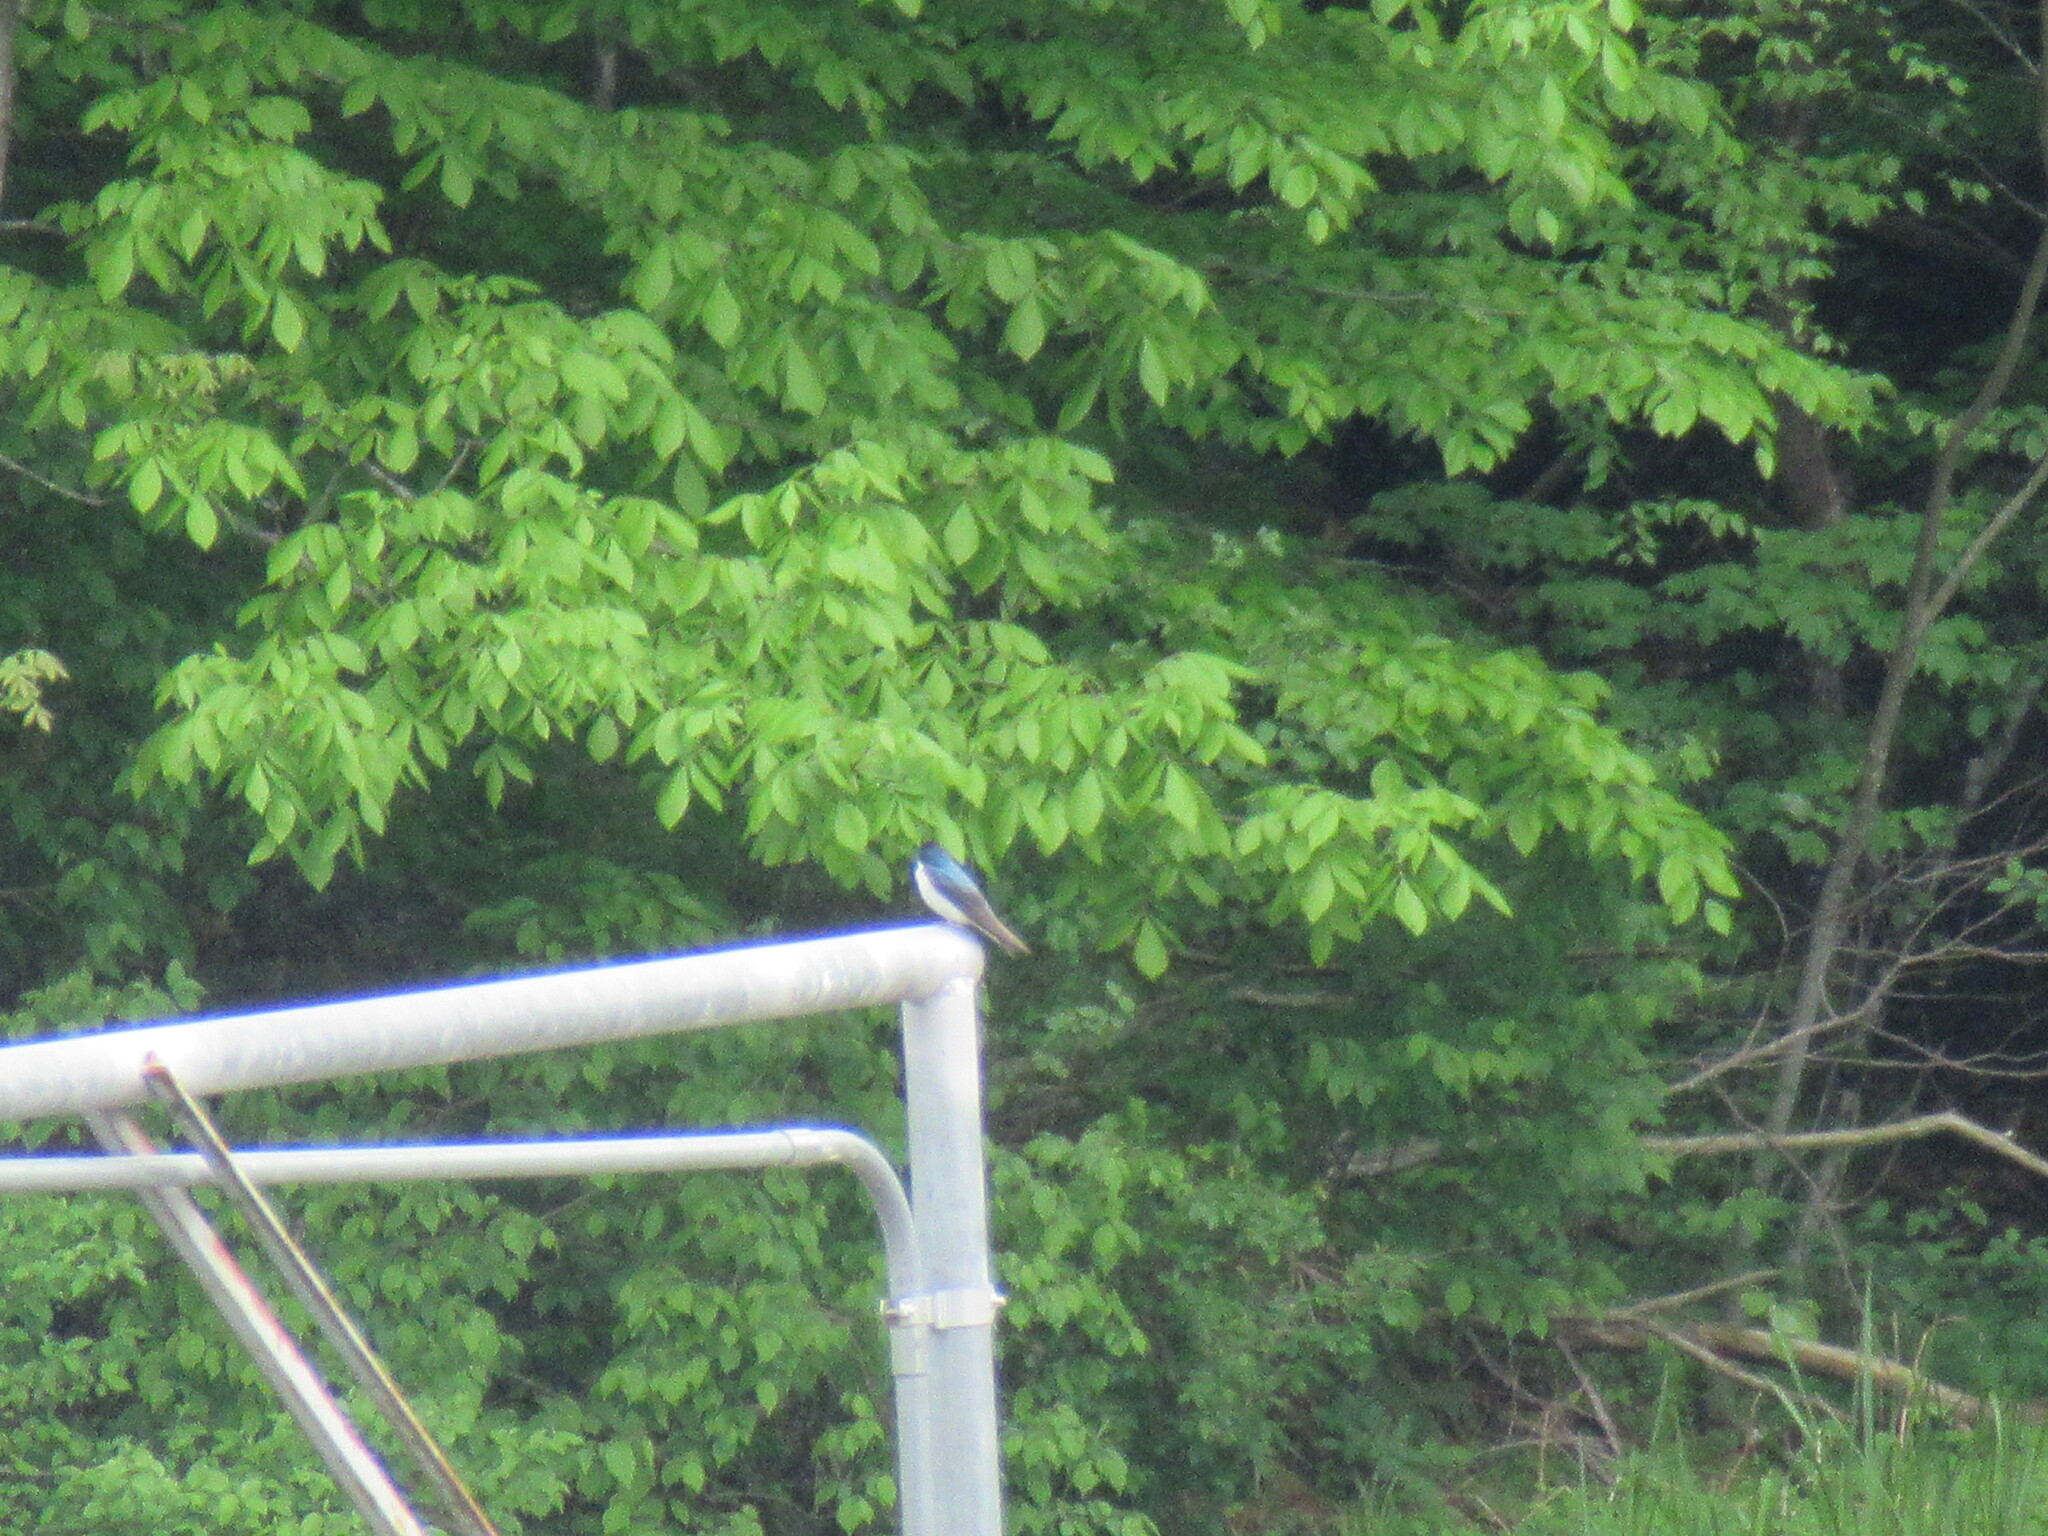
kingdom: Animalia
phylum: Chordata
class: Aves
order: Passeriformes
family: Hirundinidae
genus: Tachycineta
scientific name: Tachycineta bicolor
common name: Tree swallow
